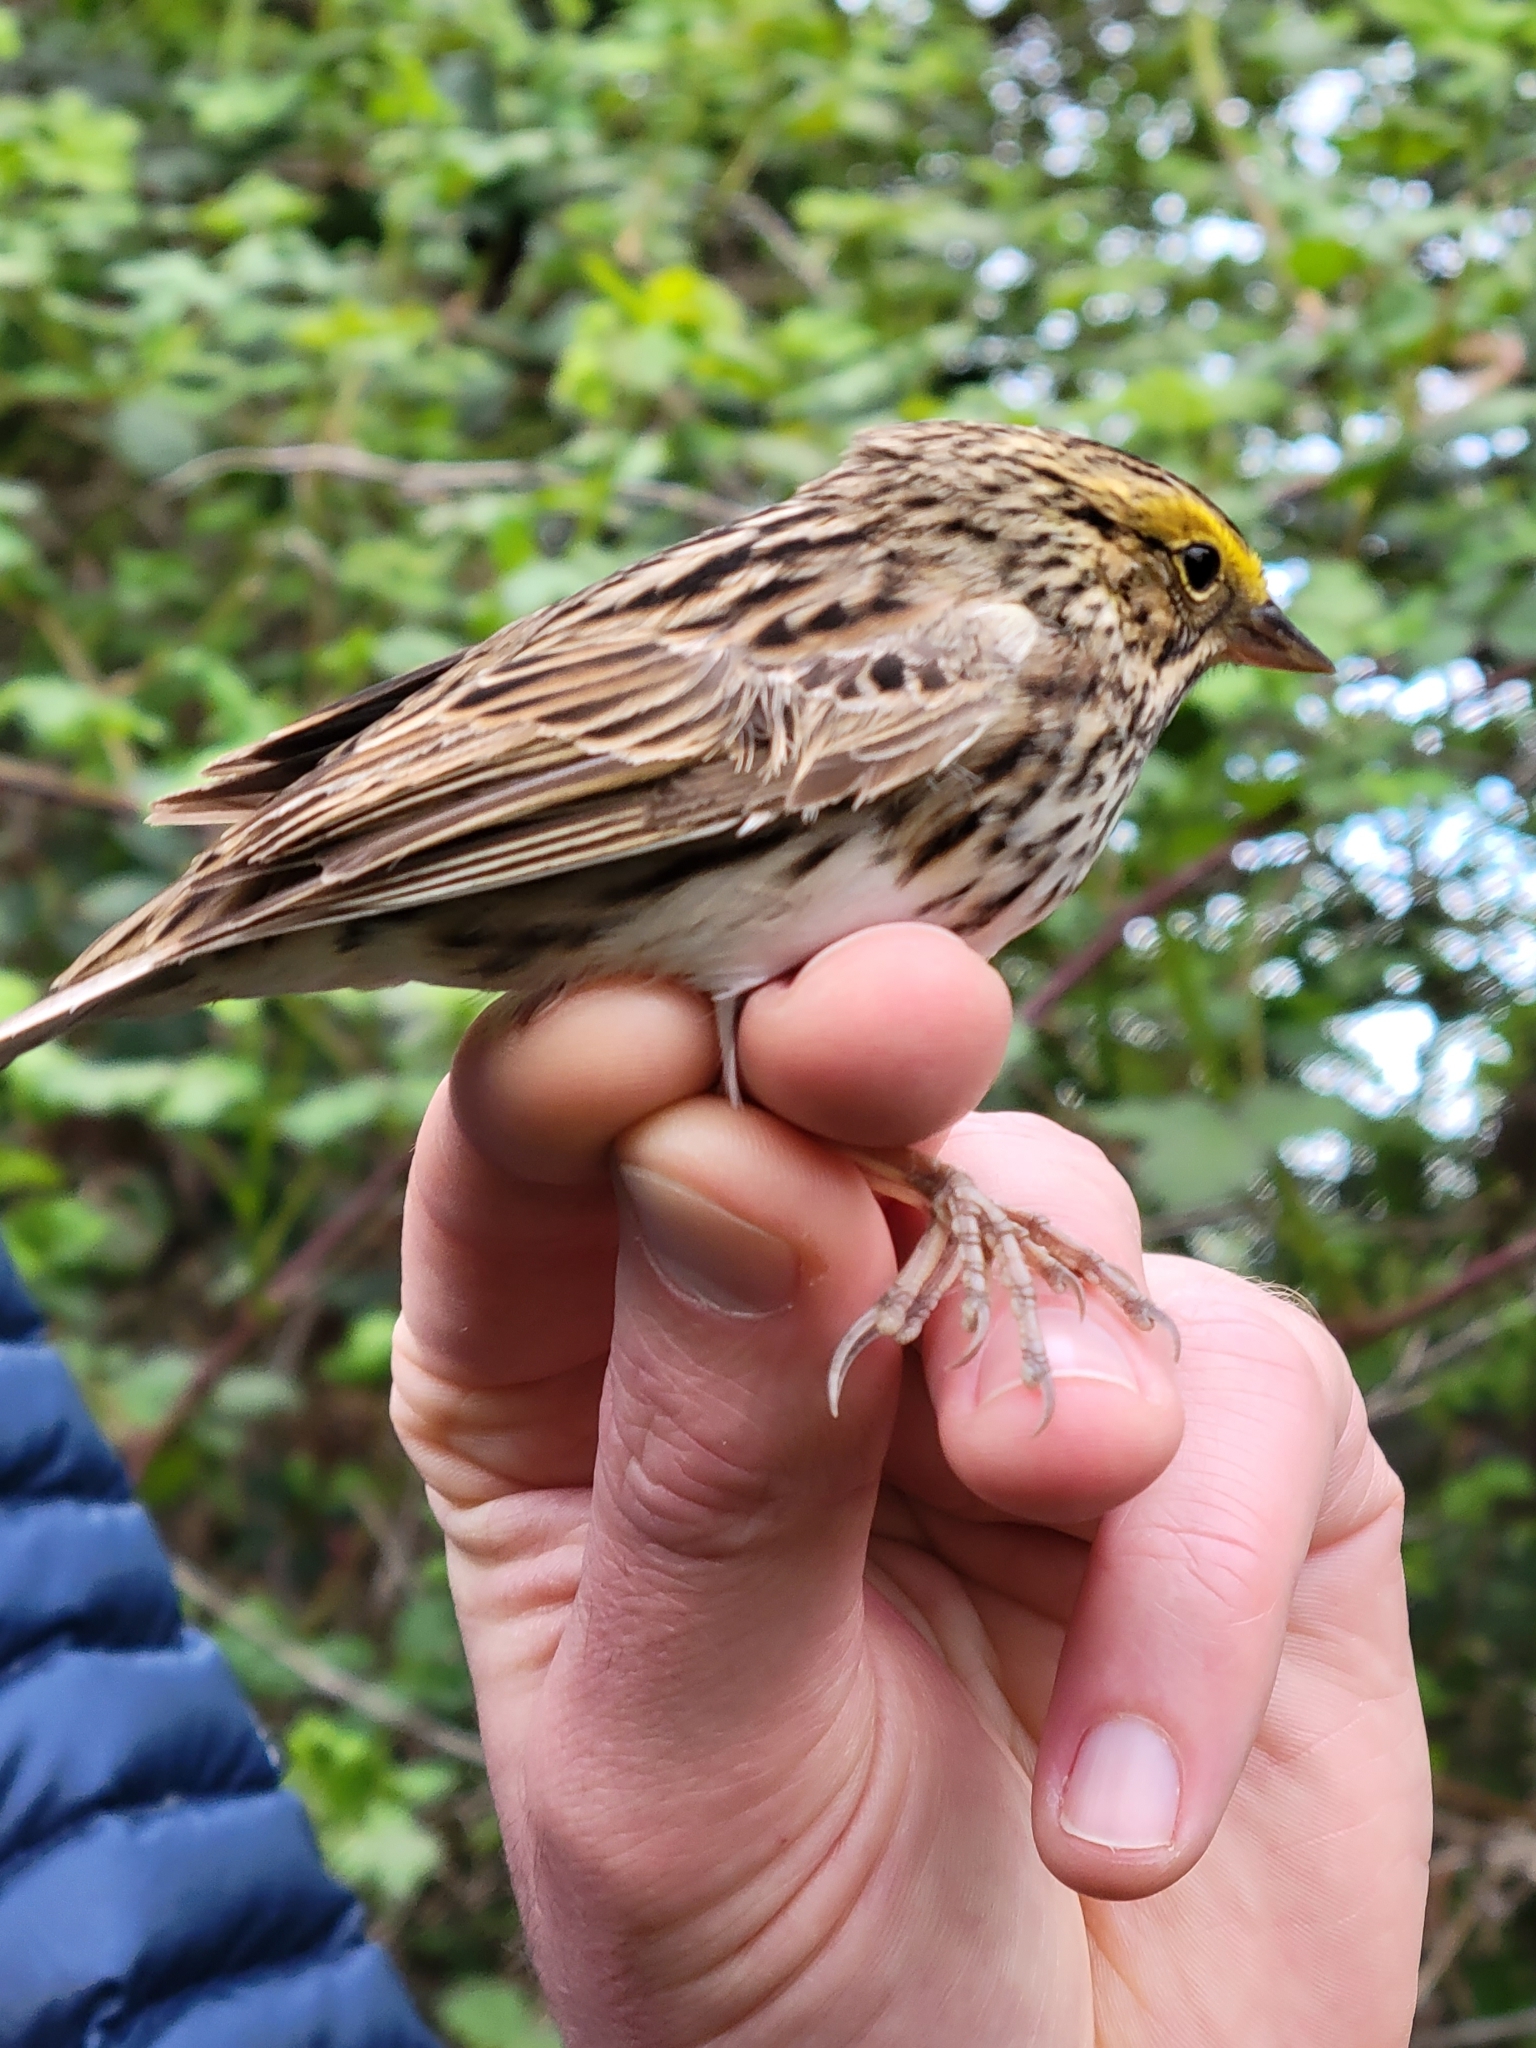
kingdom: Animalia
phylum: Chordata
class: Aves
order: Passeriformes
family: Passerellidae
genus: Passerculus
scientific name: Passerculus sandwichensis
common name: Savannah sparrow
